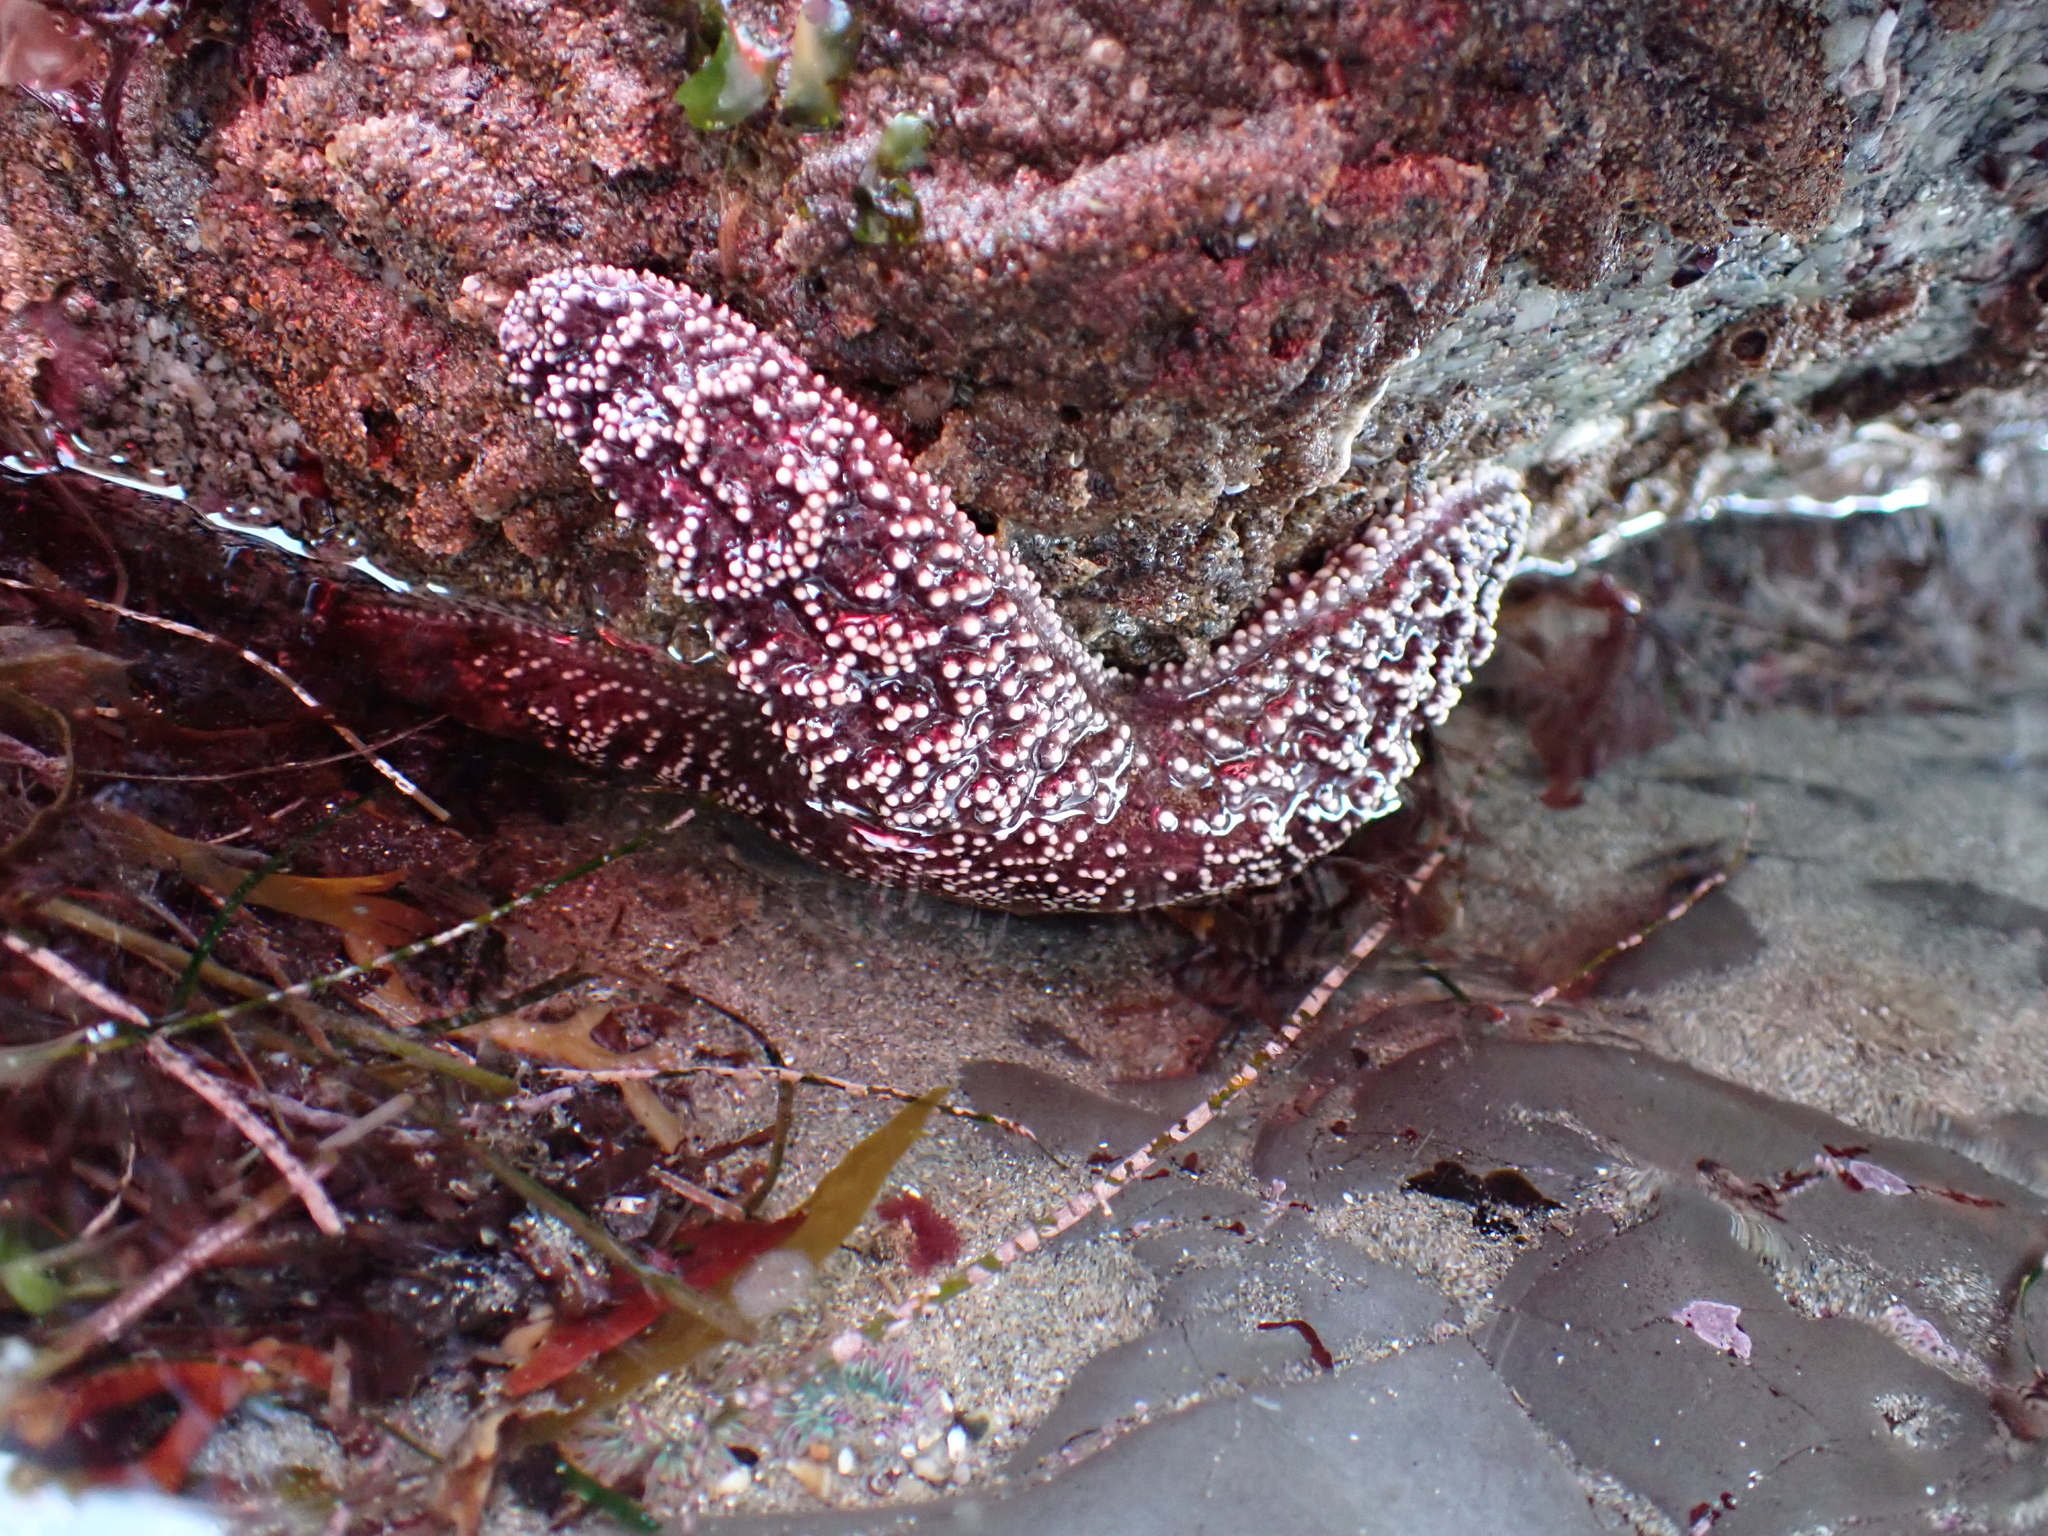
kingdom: Animalia
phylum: Echinodermata
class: Asteroidea
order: Forcipulatida
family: Asteriidae
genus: Pisaster
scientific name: Pisaster ochraceus
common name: Ochre stars
